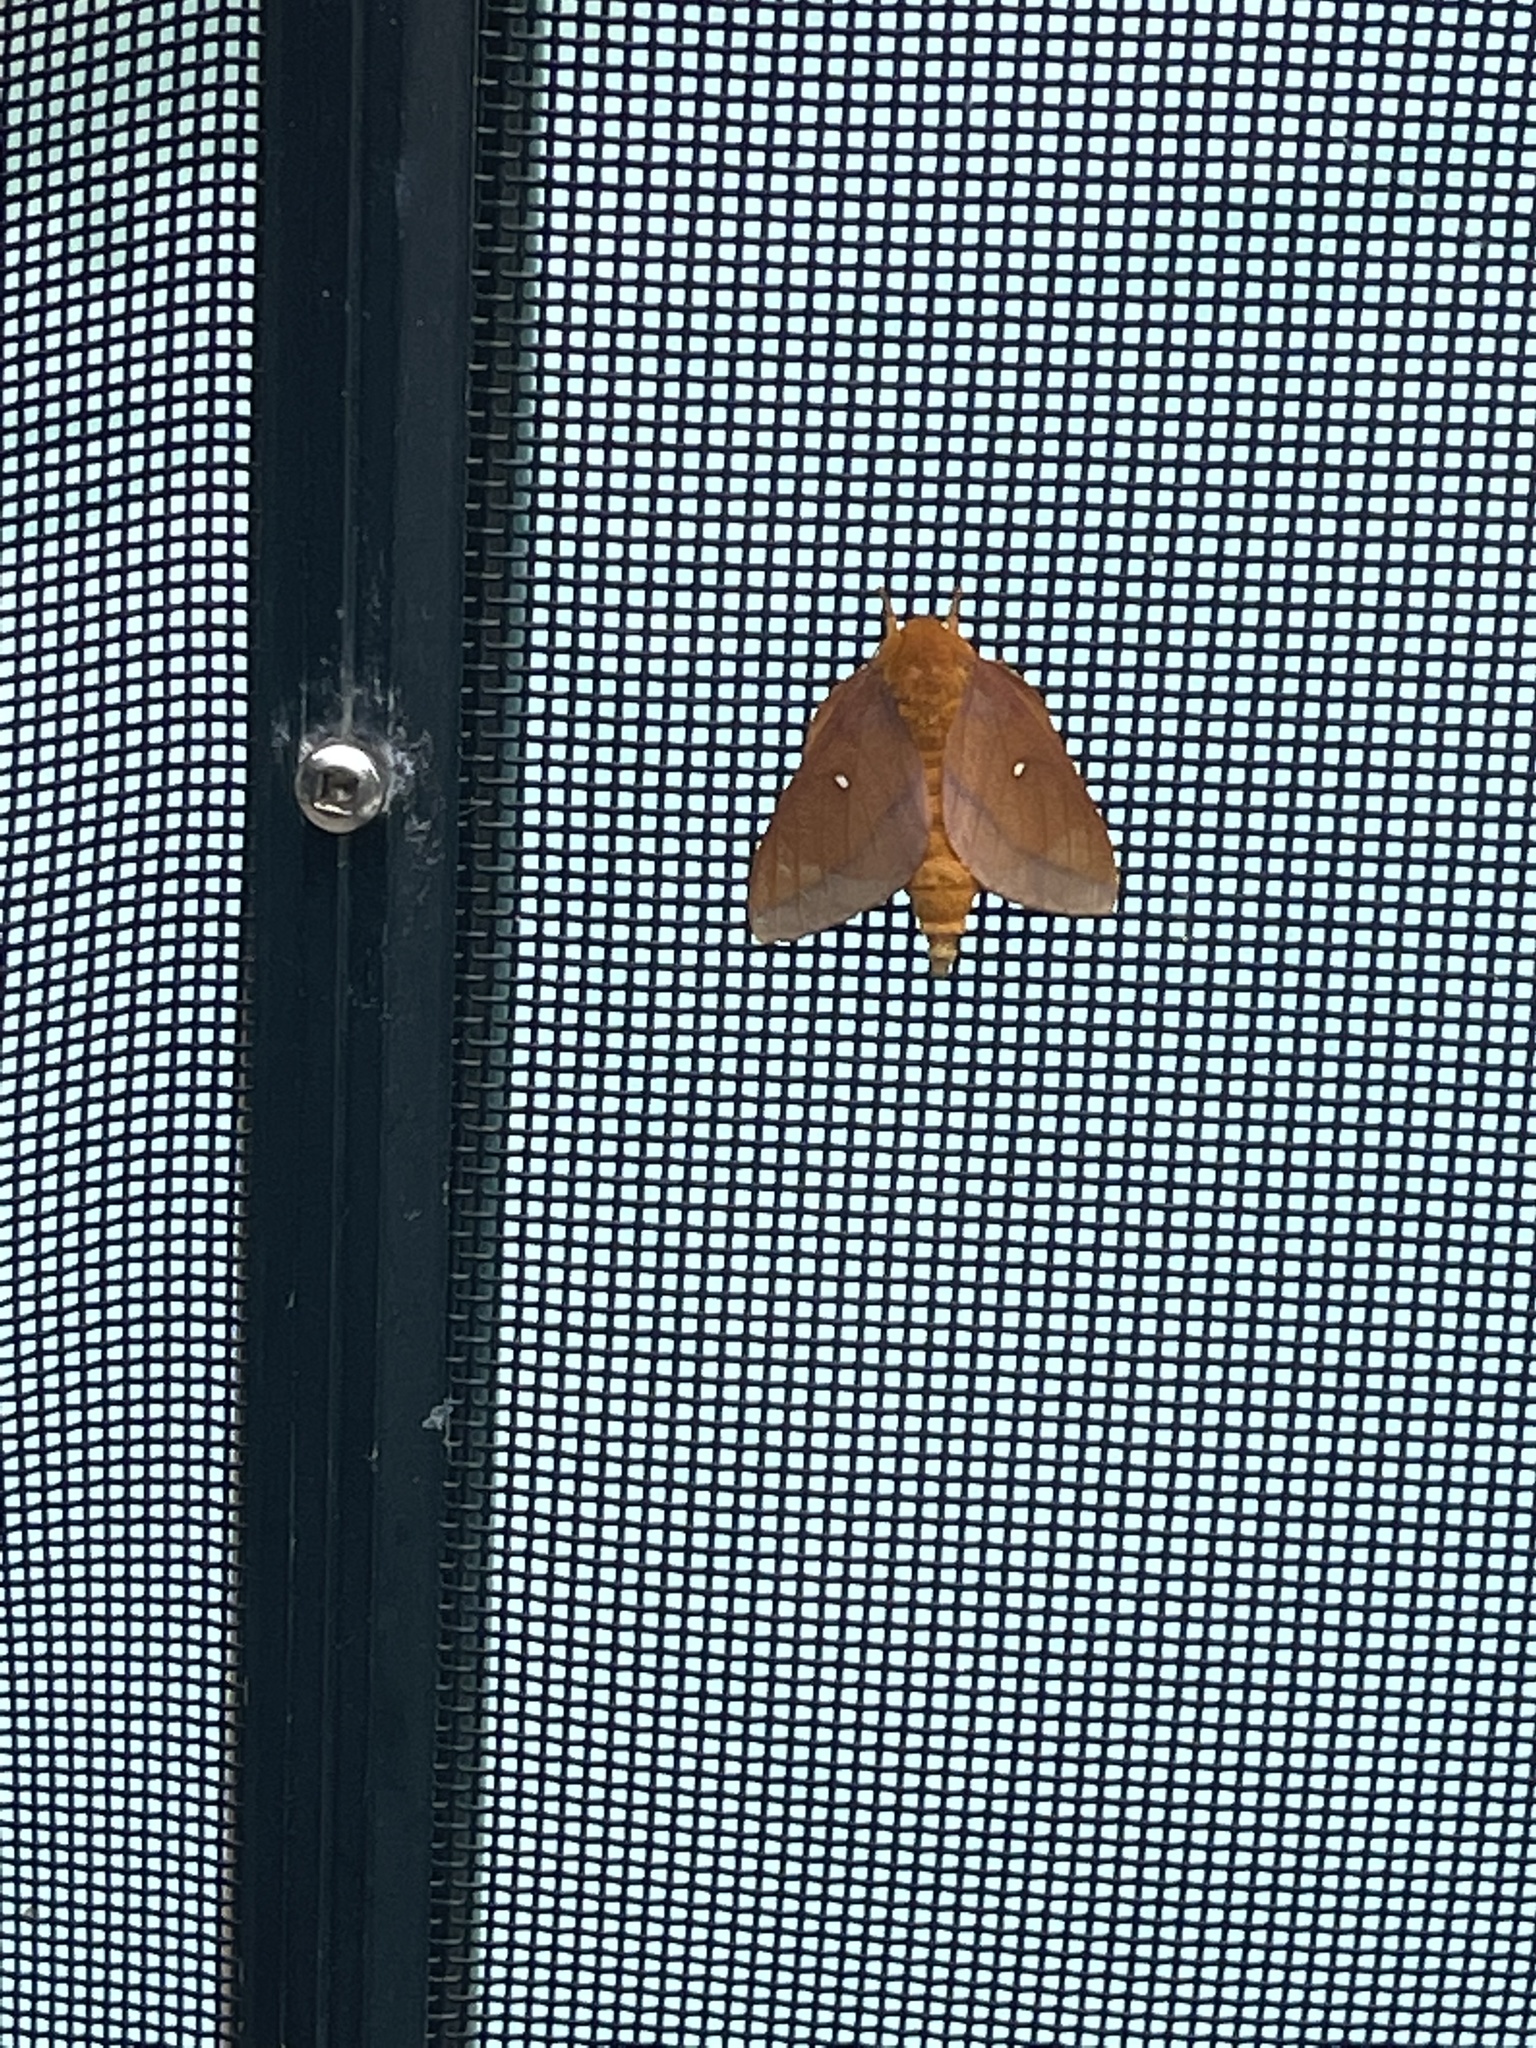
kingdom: Animalia
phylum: Arthropoda
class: Insecta
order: Lepidoptera
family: Saturniidae
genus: Anisota
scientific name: Anisota virginiensis
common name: Pink striped oakworm moth
